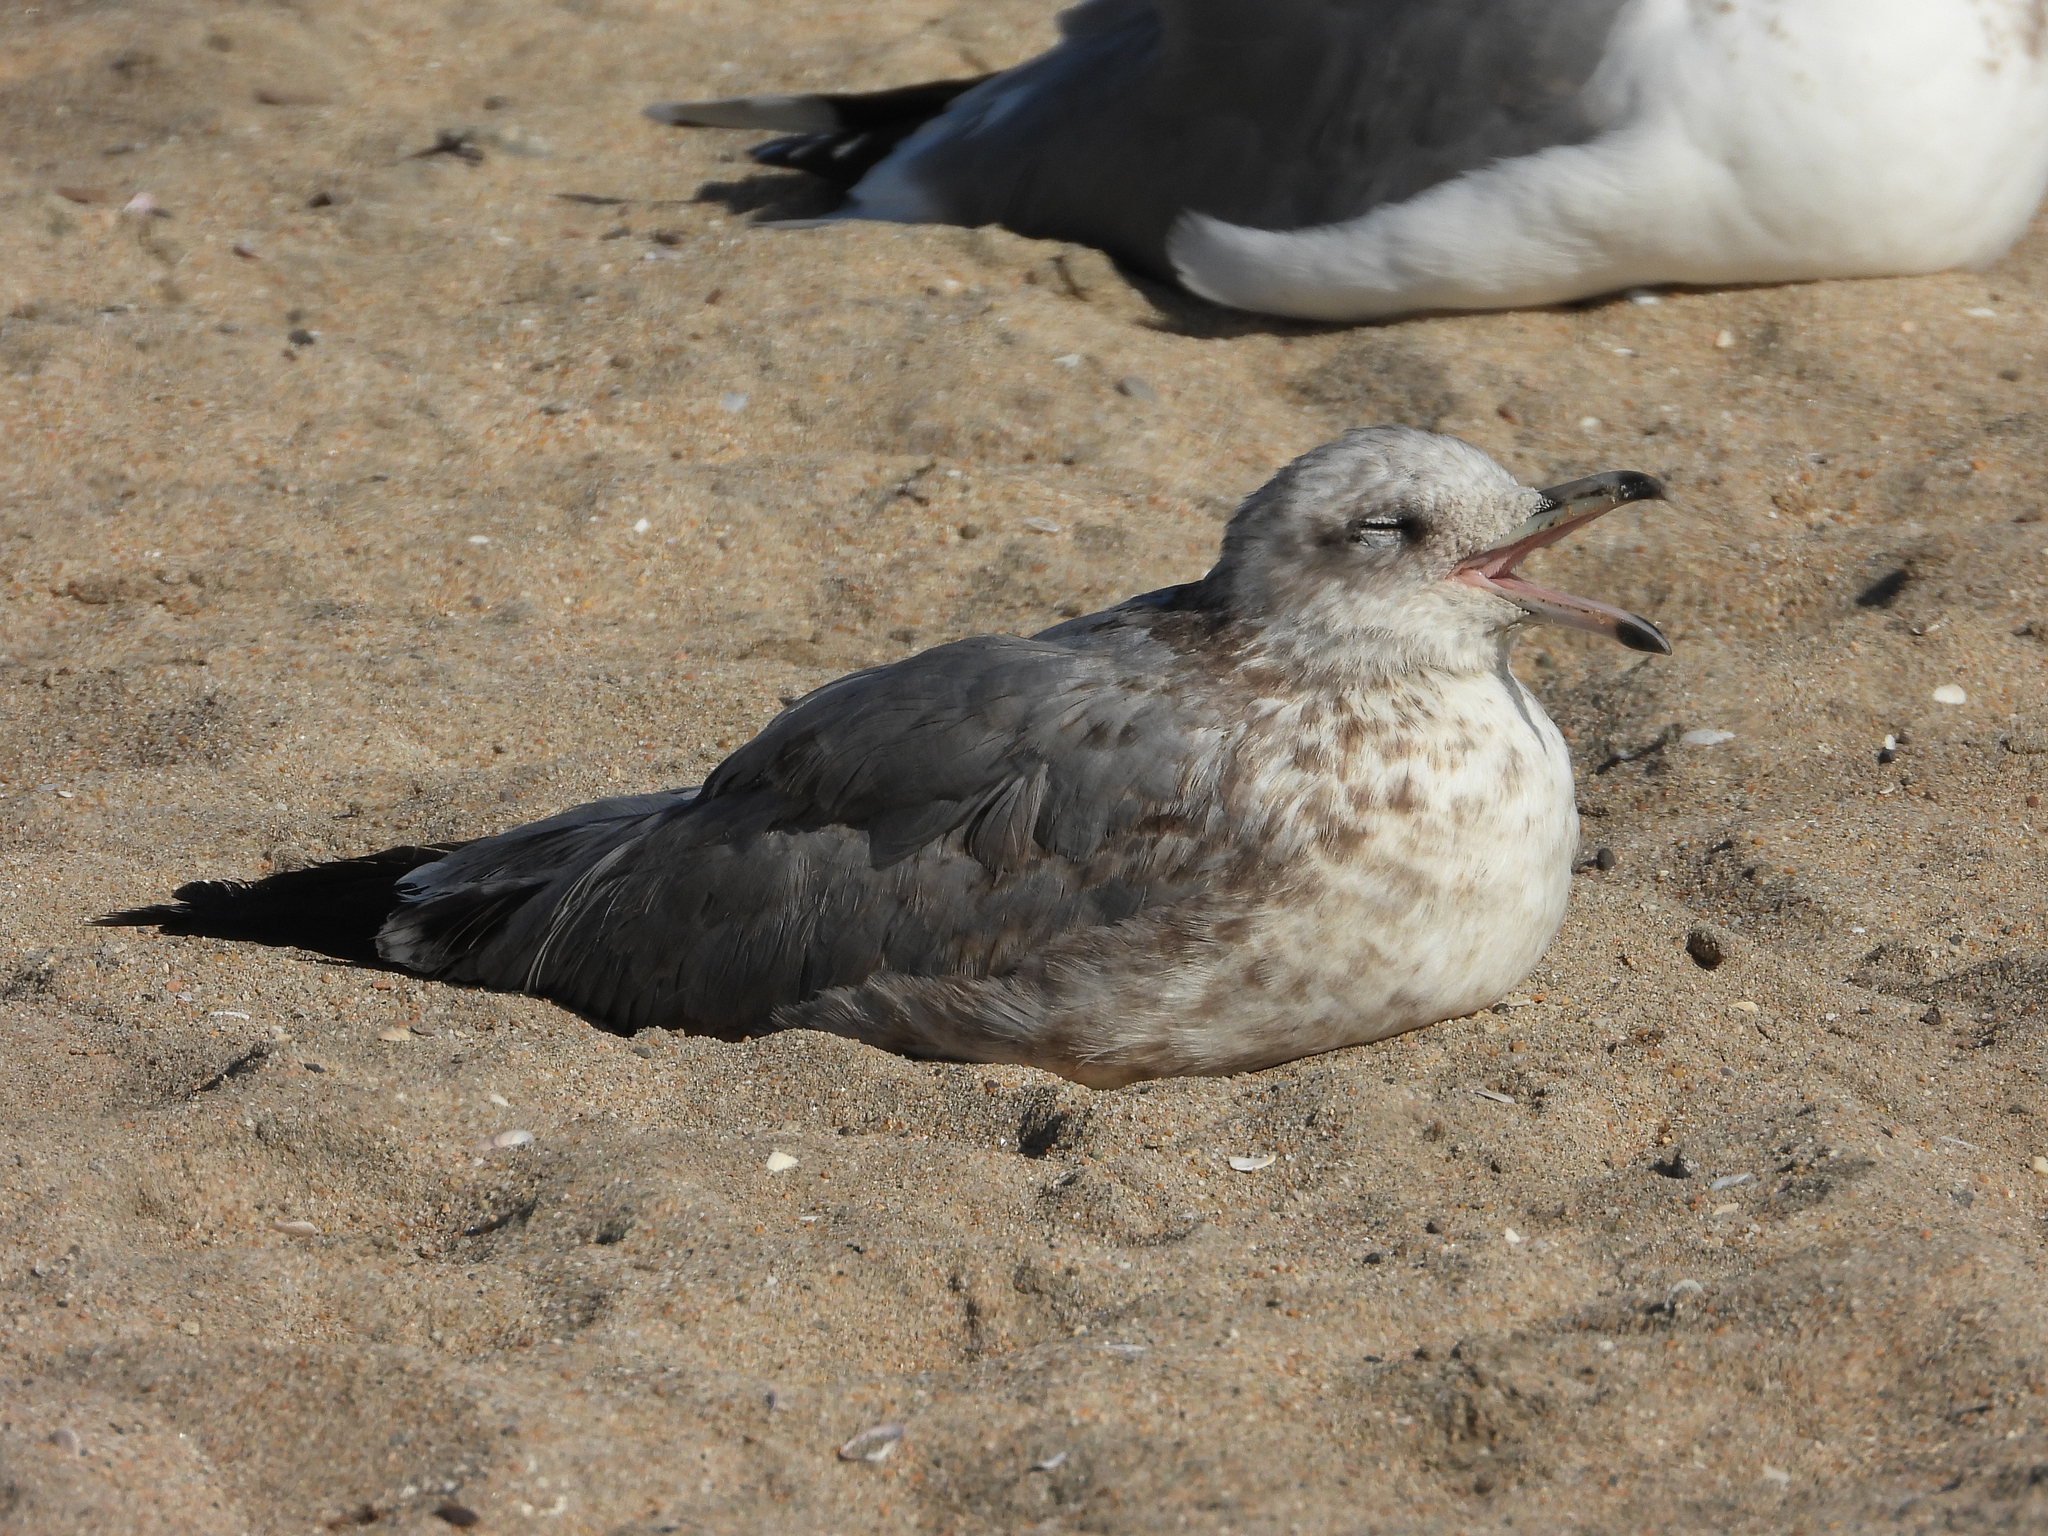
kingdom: Animalia
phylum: Chordata
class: Aves
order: Charadriiformes
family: Laridae
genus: Larus
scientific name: Larus californicus
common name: California gull
